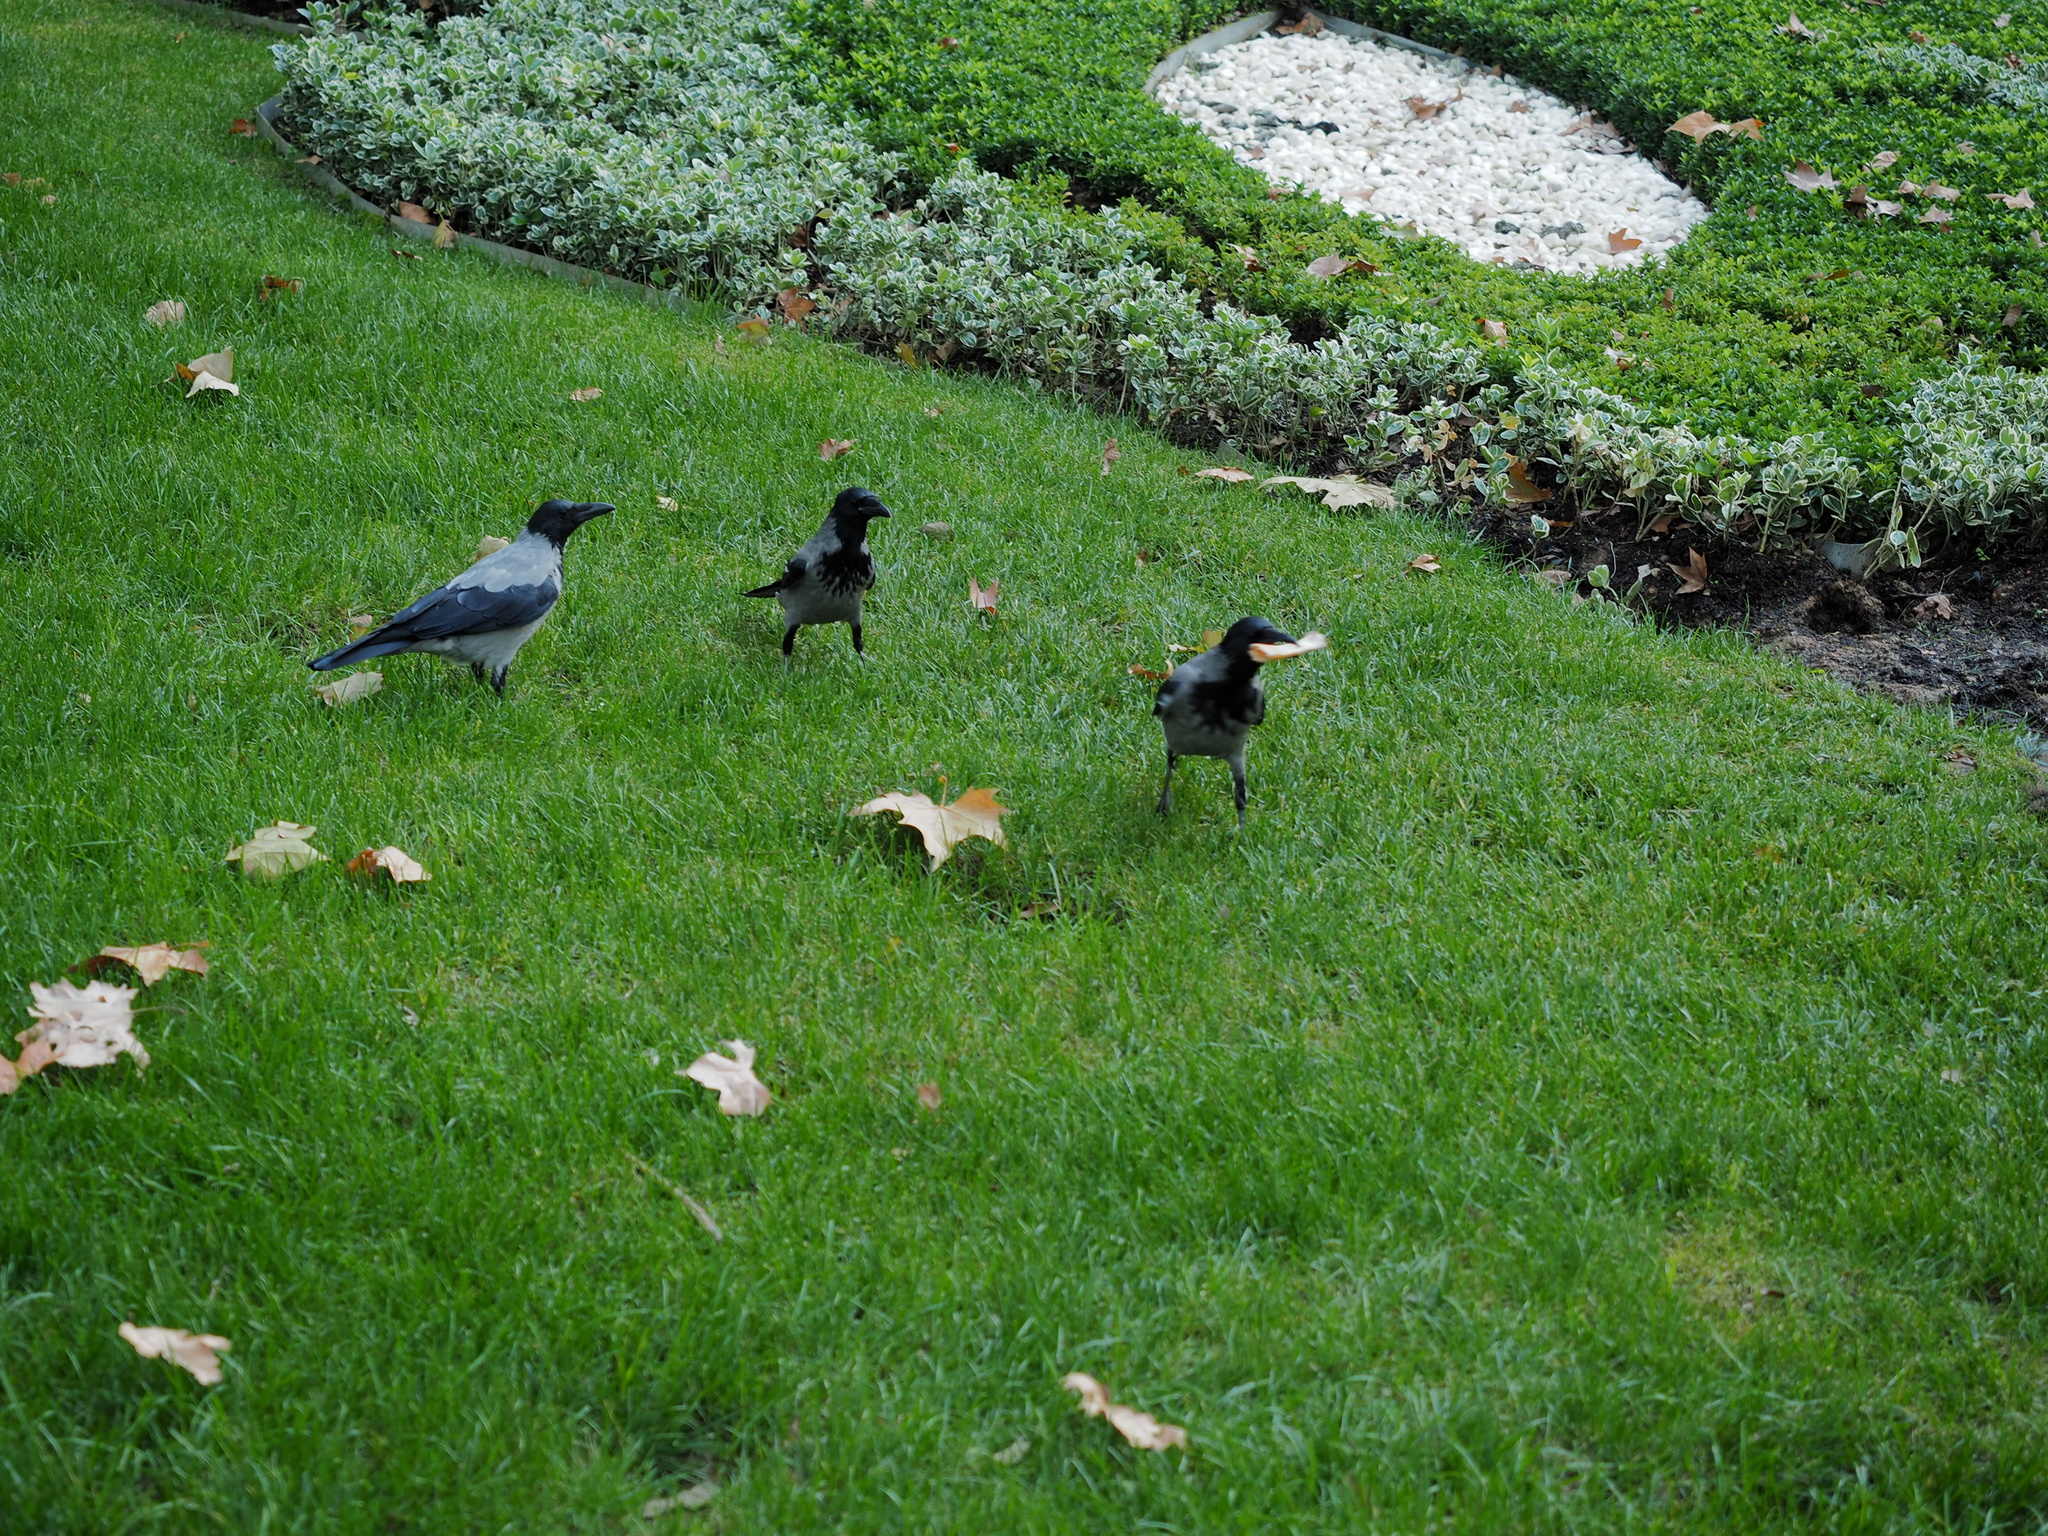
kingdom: Animalia
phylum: Chordata
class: Aves
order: Passeriformes
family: Corvidae
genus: Corvus
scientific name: Corvus cornix
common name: Hooded crow
